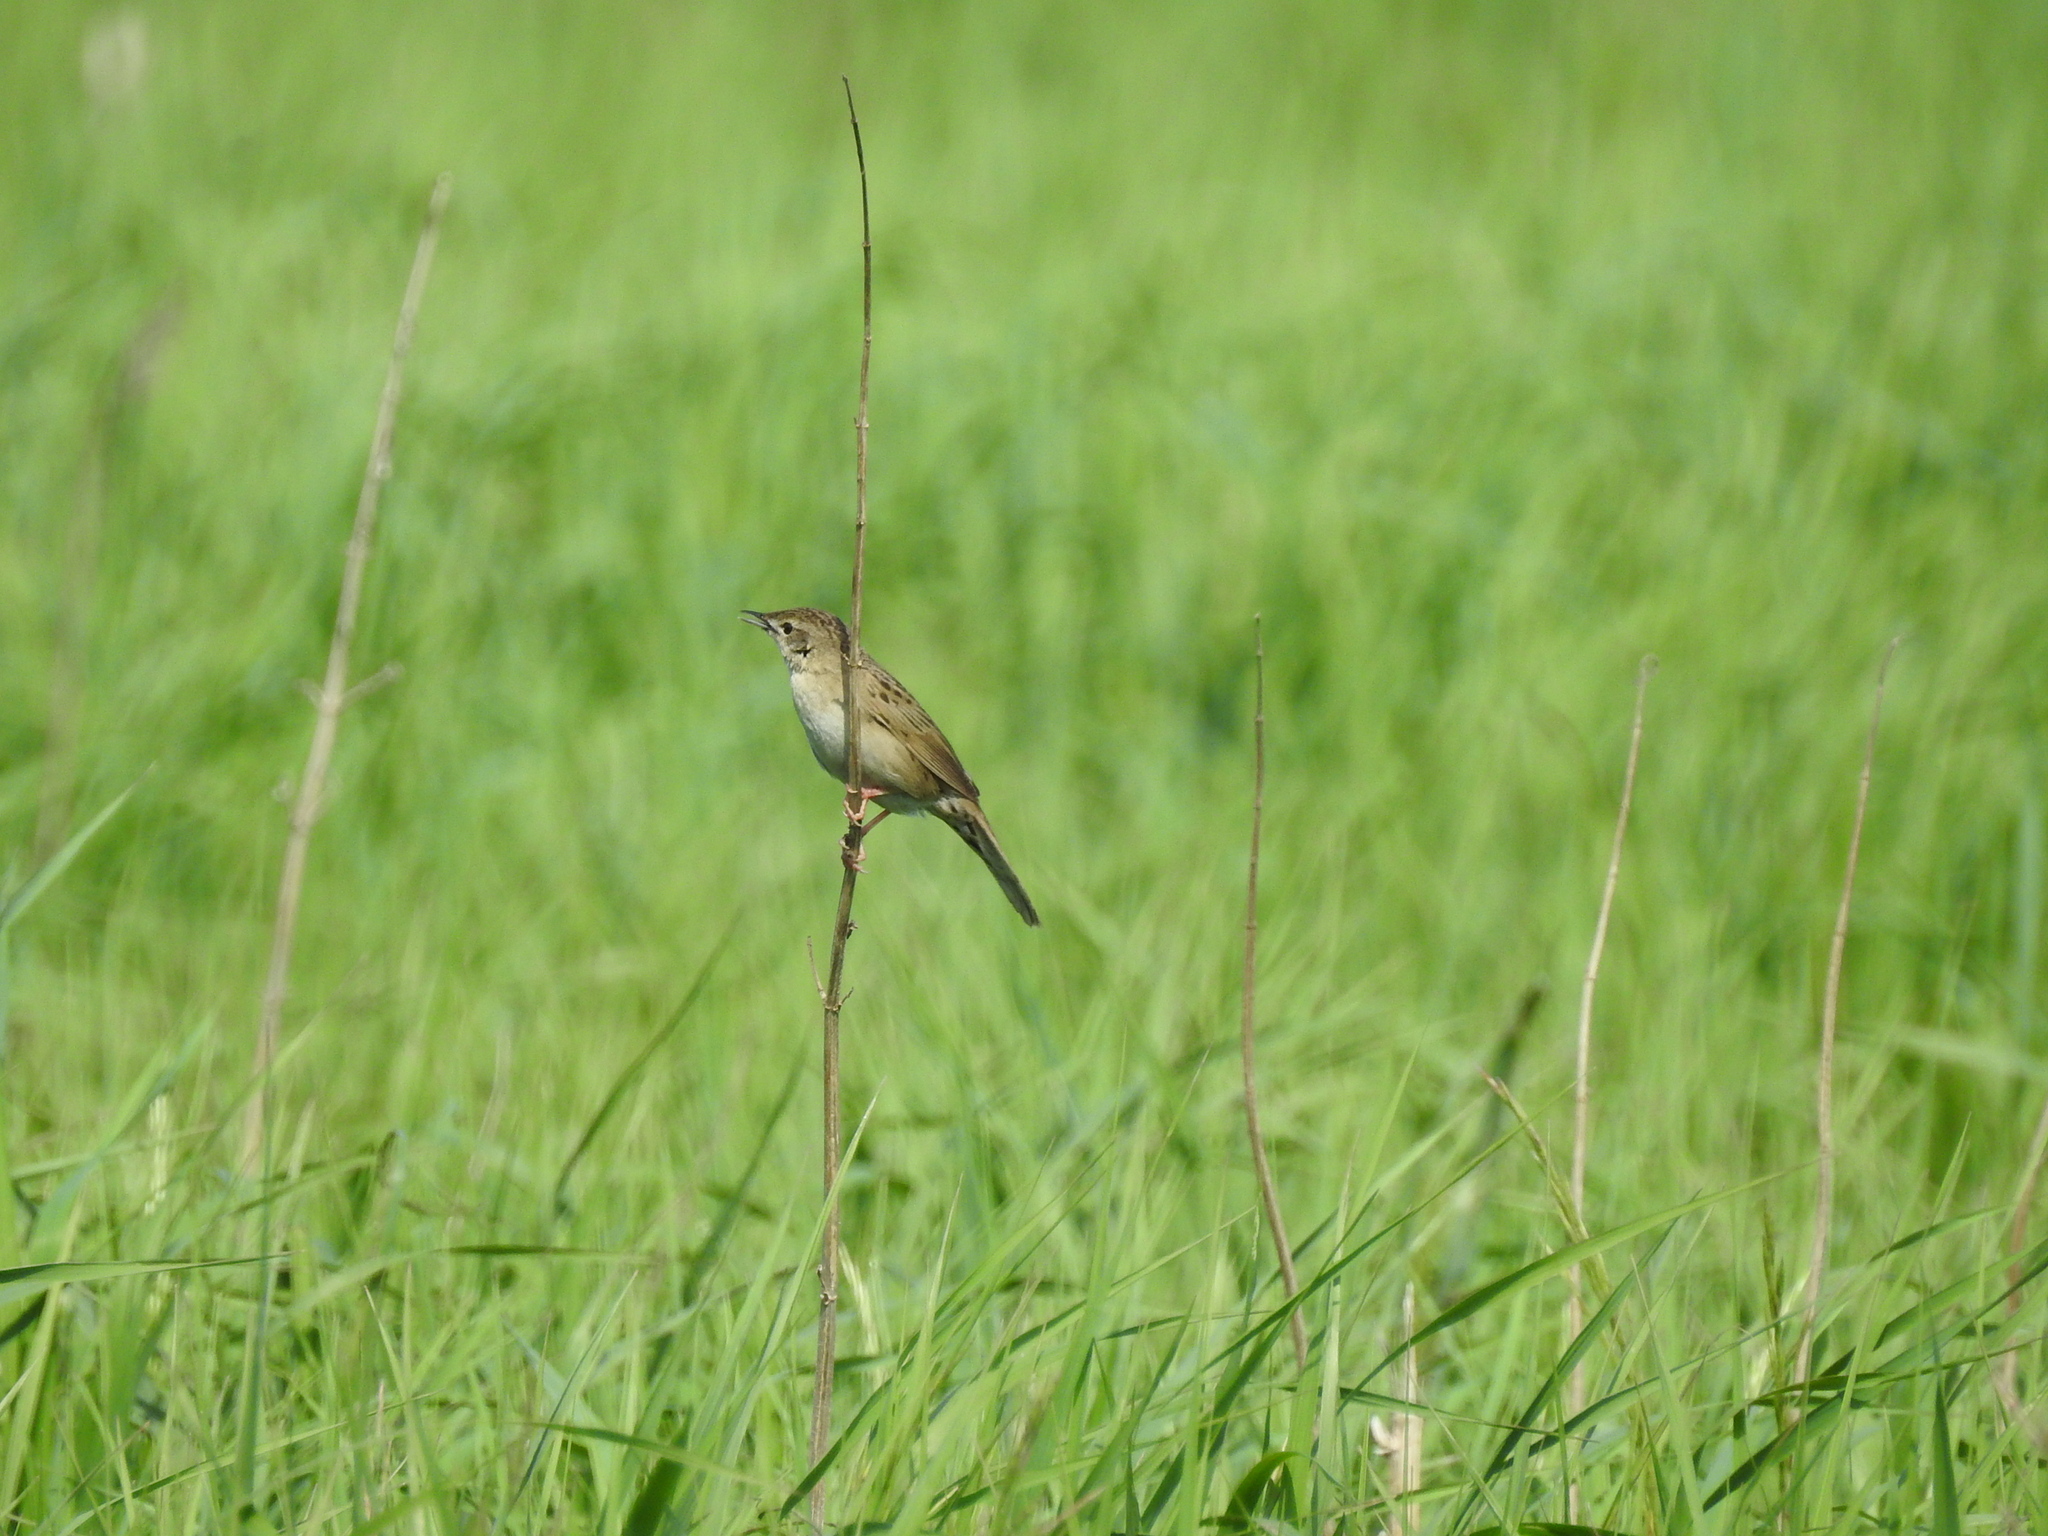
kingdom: Animalia
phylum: Chordata
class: Aves
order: Passeriformes
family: Locustellidae
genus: Locustella
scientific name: Locustella naevia
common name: Common grasshopper warbler
